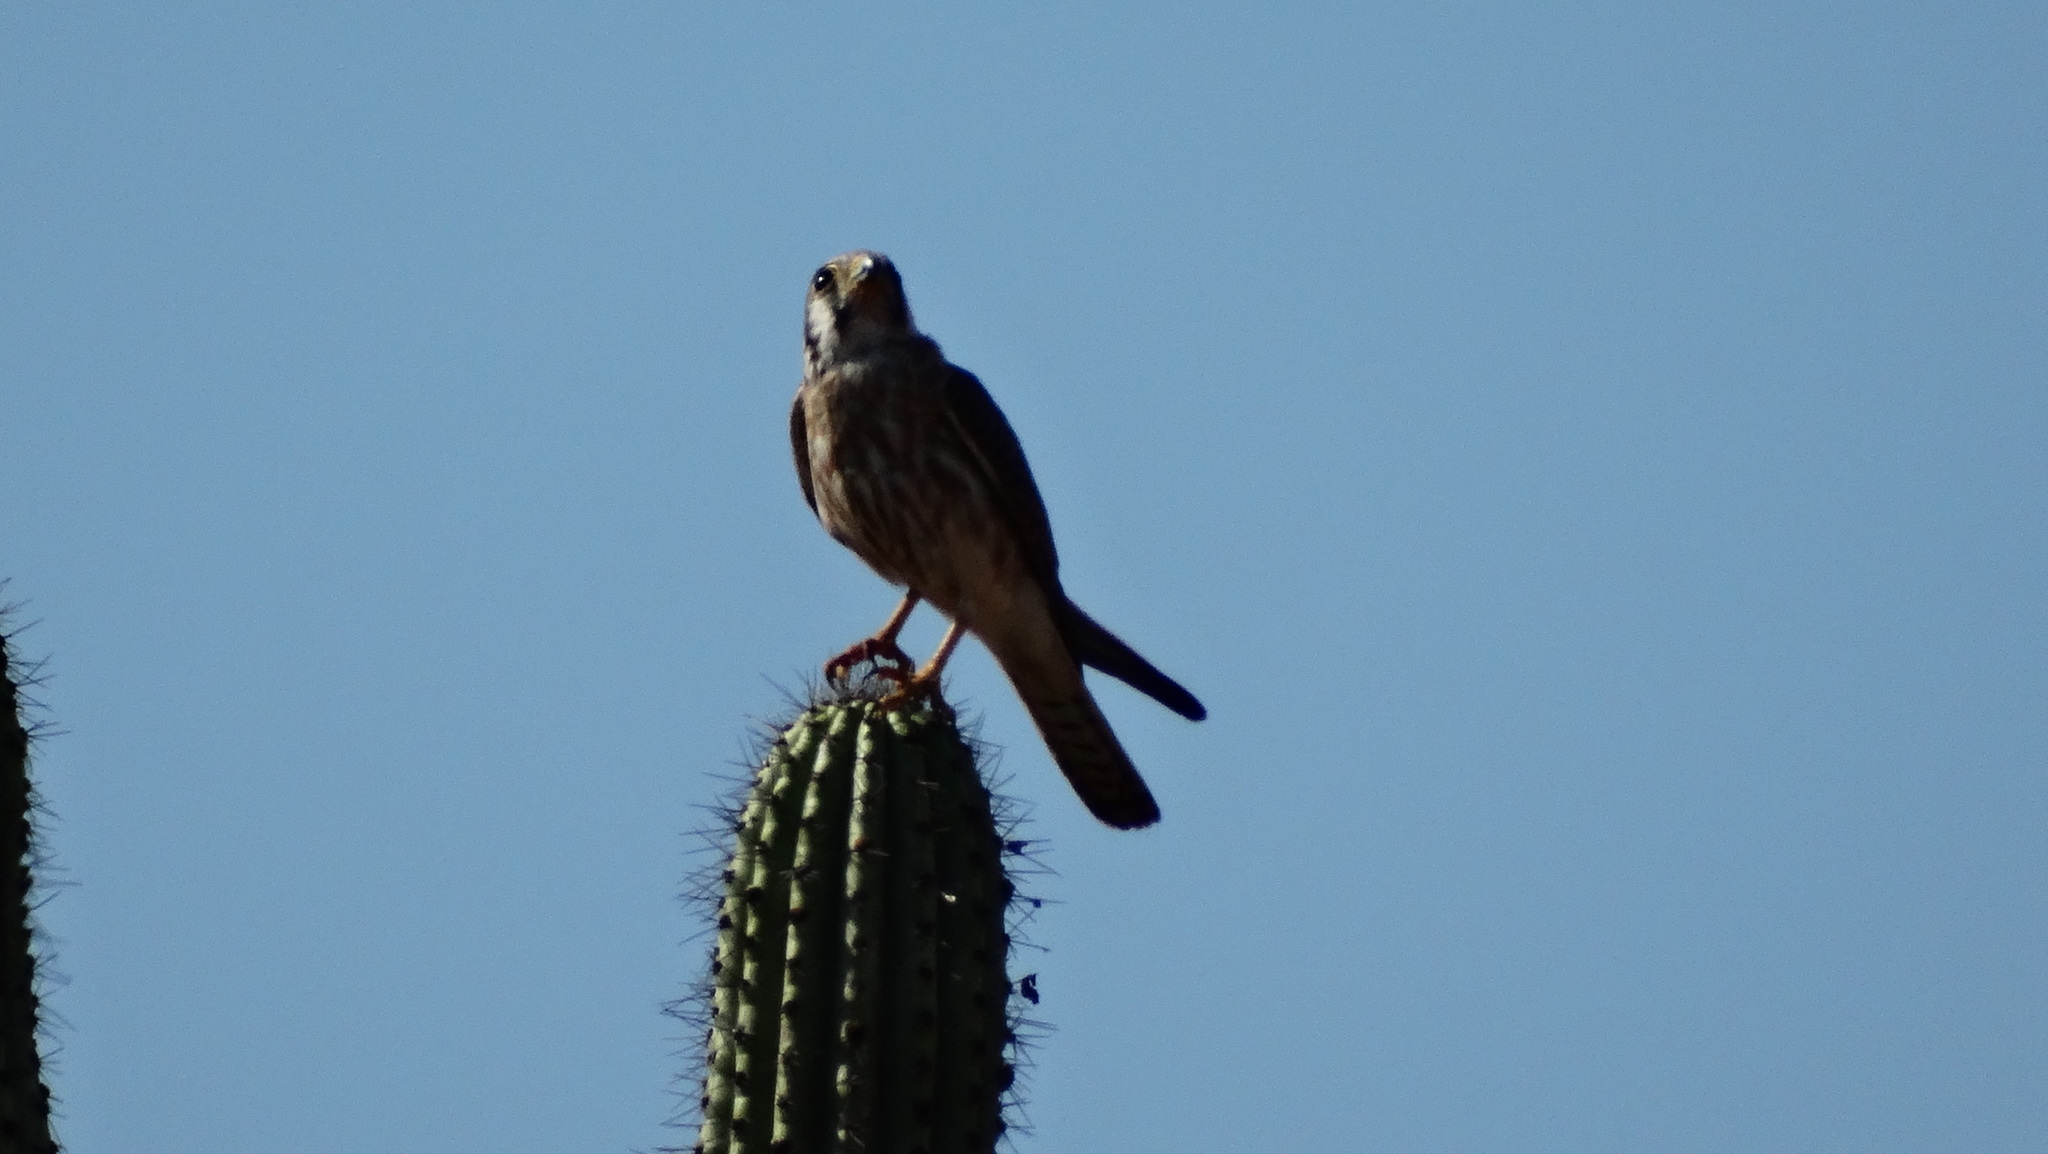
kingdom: Animalia
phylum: Chordata
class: Aves
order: Falconiformes
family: Falconidae
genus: Falco
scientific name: Falco sparverius
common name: American kestrel
